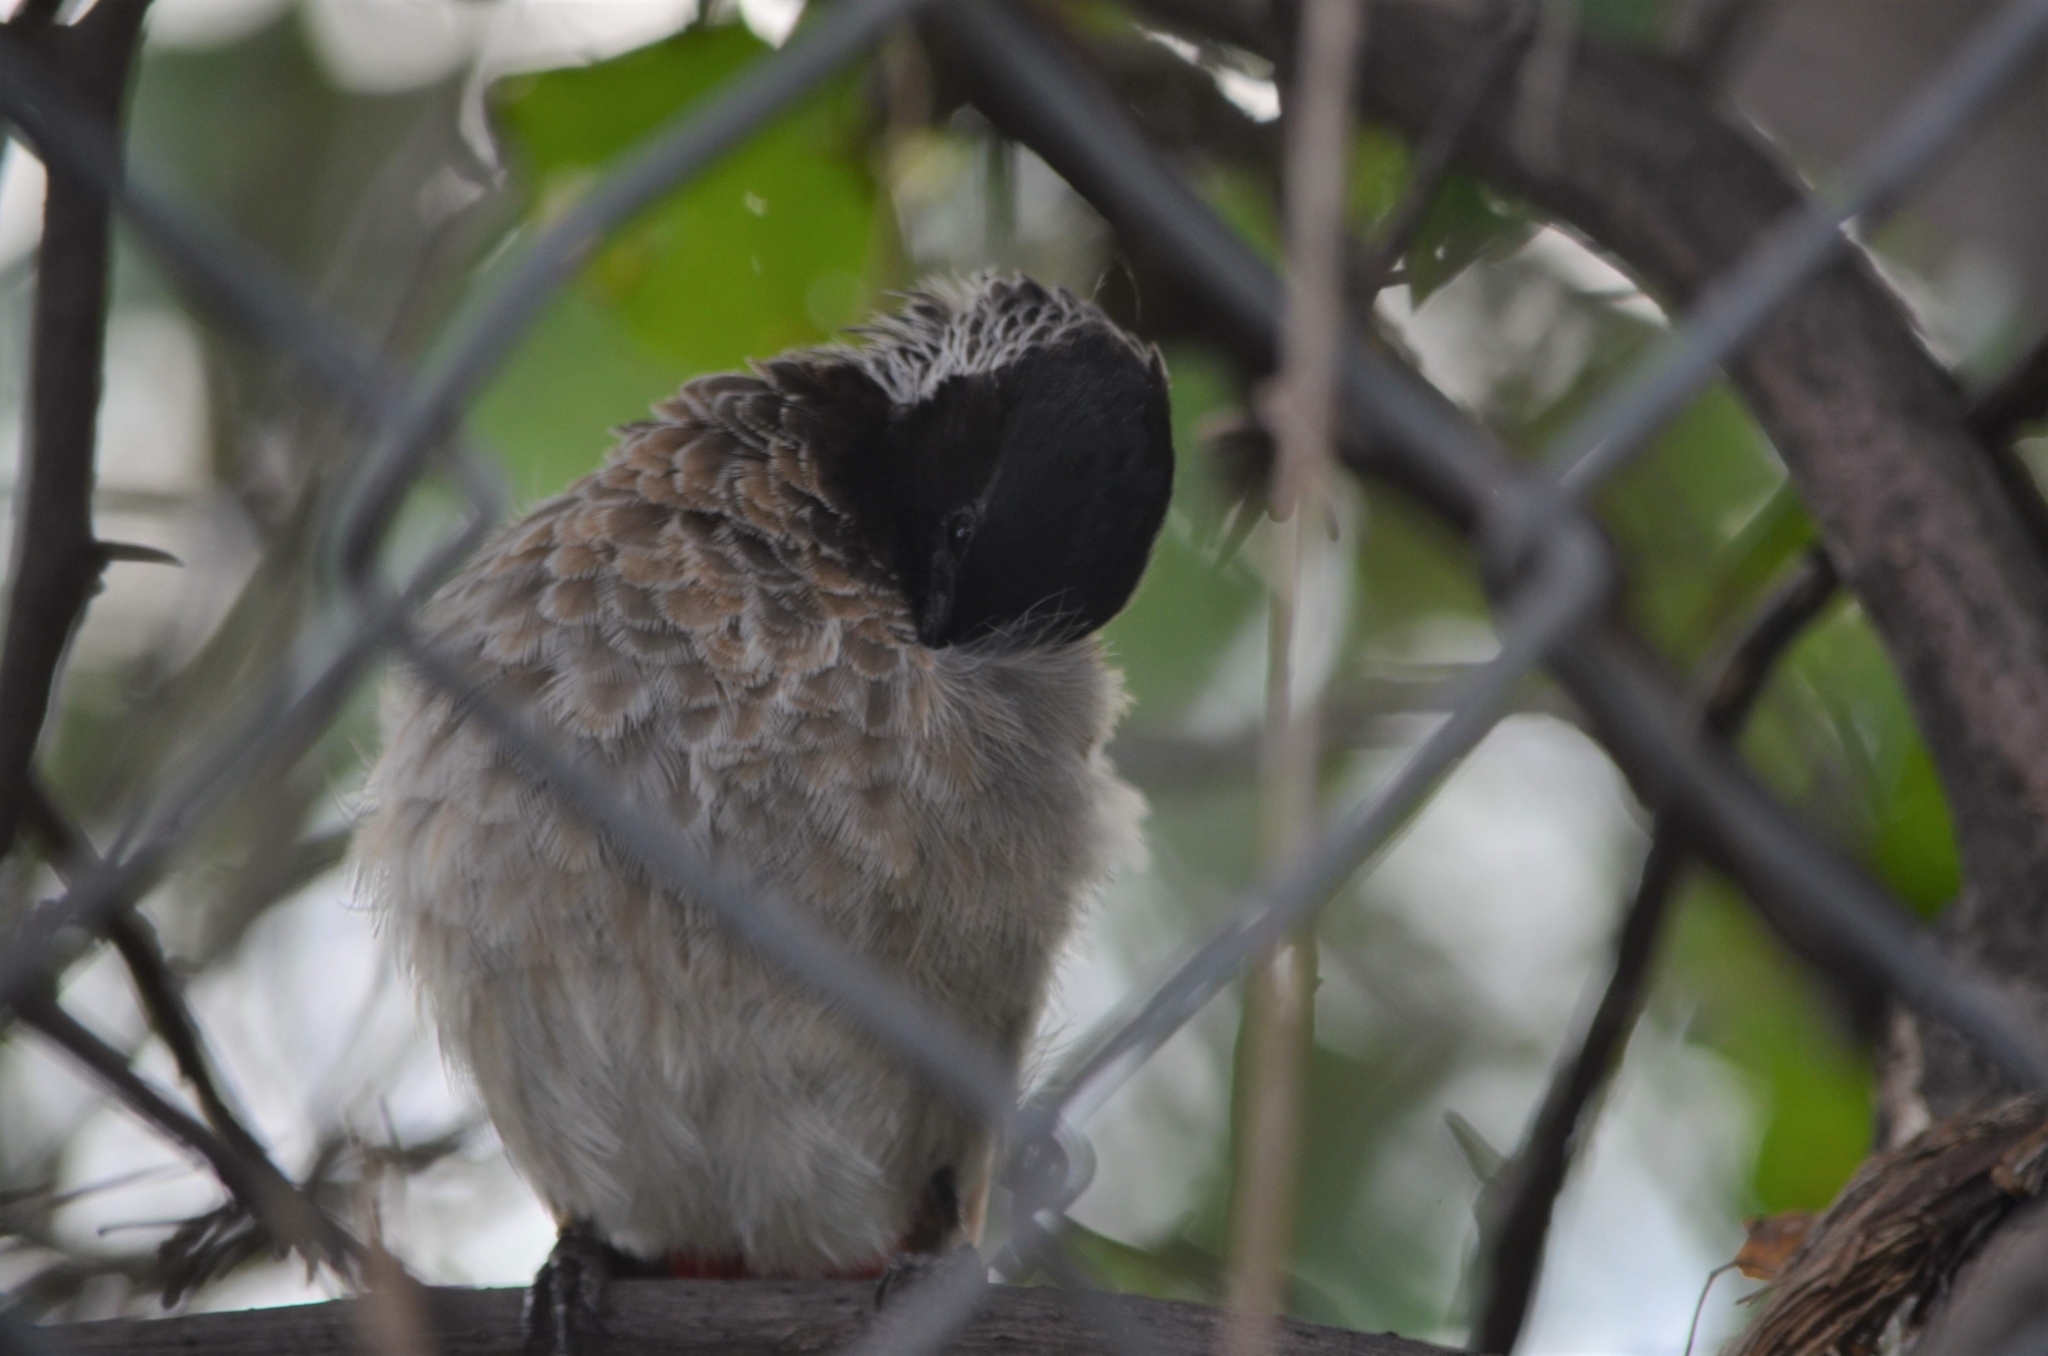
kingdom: Animalia
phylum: Chordata
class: Aves
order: Passeriformes
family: Pycnonotidae
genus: Pycnonotus
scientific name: Pycnonotus cafer
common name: Red-vented bulbul
